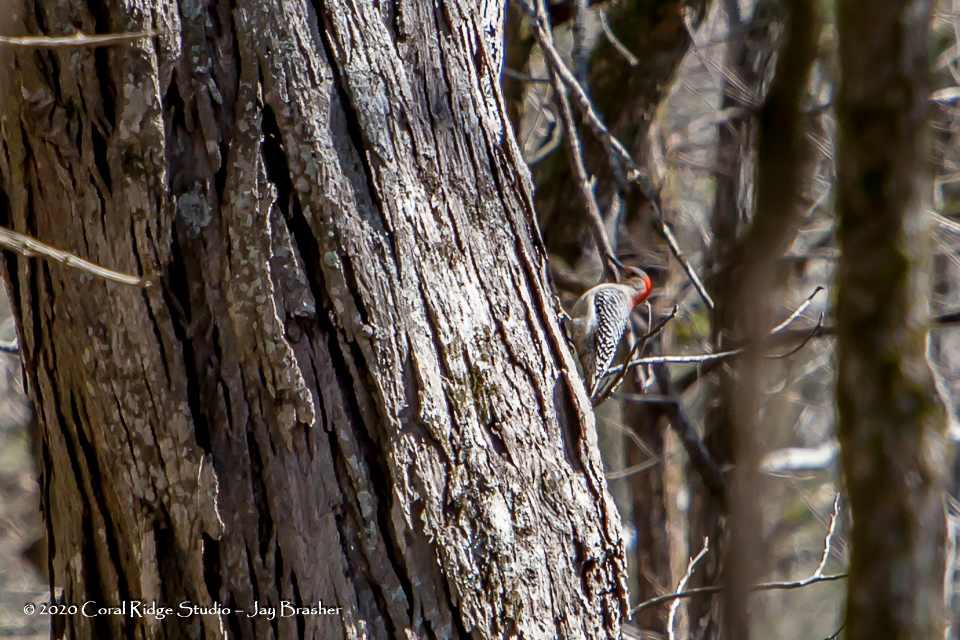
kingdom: Animalia
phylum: Chordata
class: Aves
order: Piciformes
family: Picidae
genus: Melanerpes
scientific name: Melanerpes carolinus
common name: Red-bellied woodpecker
